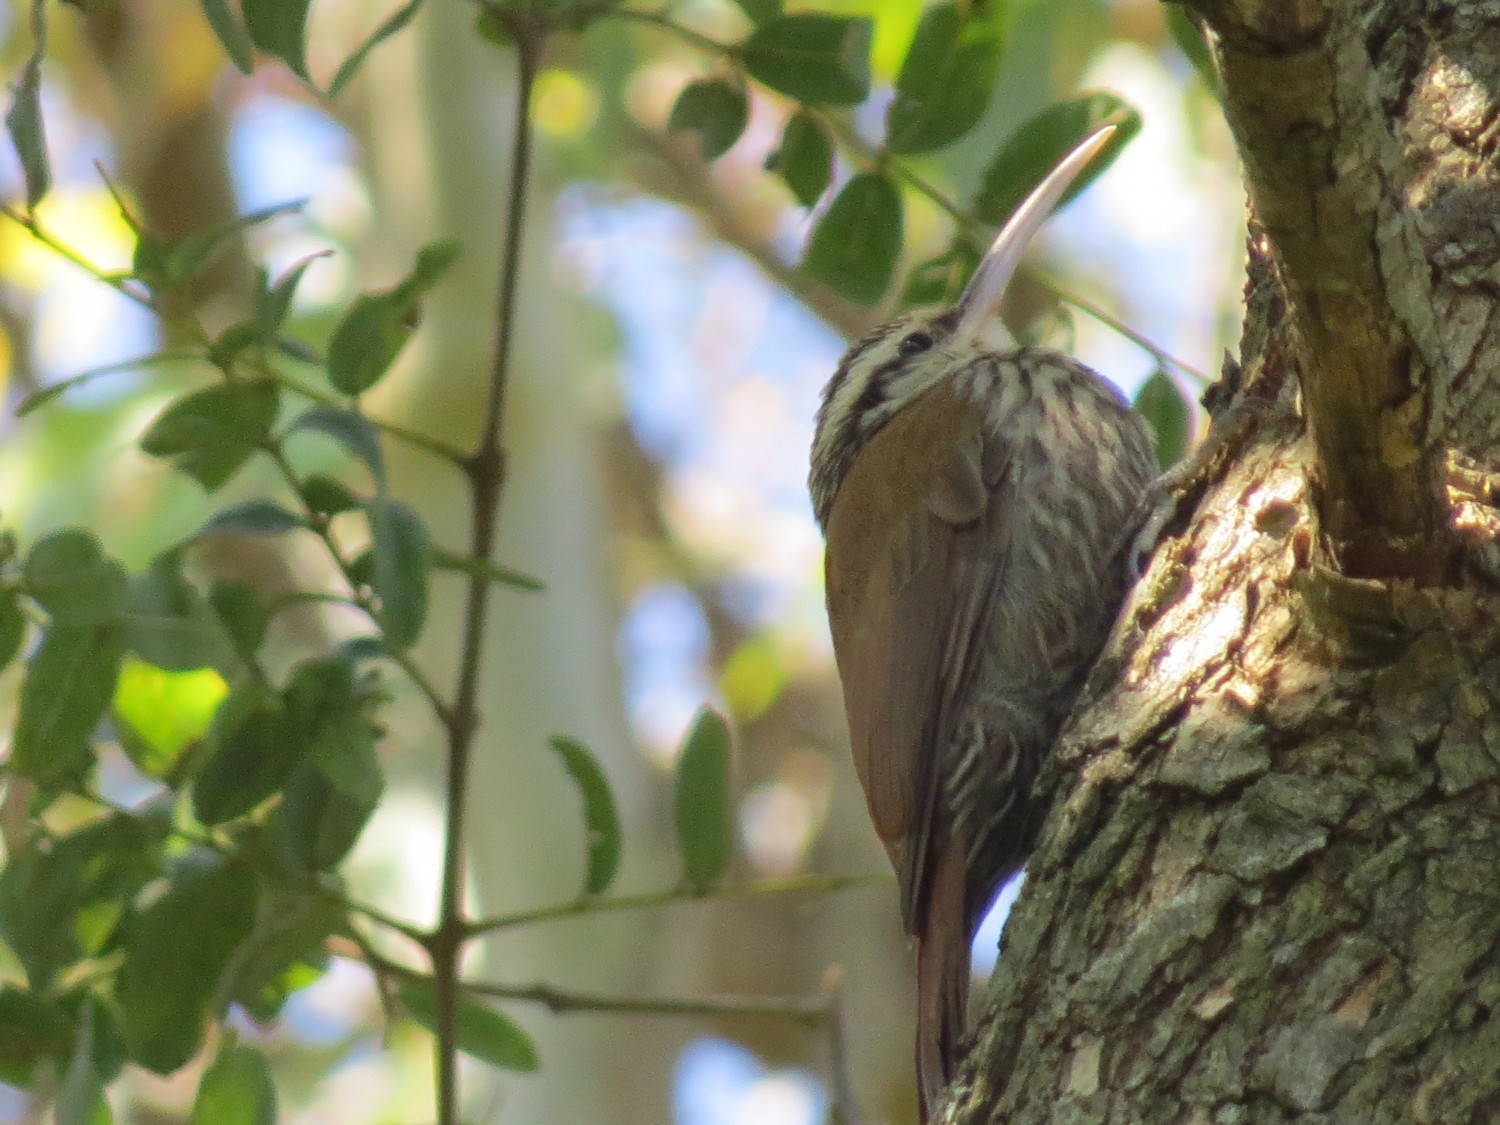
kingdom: Animalia
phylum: Chordata
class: Aves
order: Passeriformes
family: Furnariidae
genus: Lepidocolaptes
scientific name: Lepidocolaptes angustirostris
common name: Narrow-billed woodcreeper
